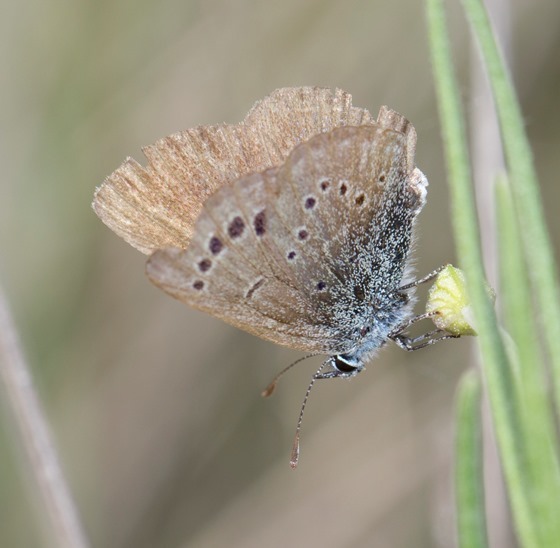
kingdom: Animalia
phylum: Arthropoda
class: Insecta
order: Lepidoptera
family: Lycaenidae
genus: Glaucopsyche
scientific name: Glaucopsyche melanops
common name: Black-eyed blue
